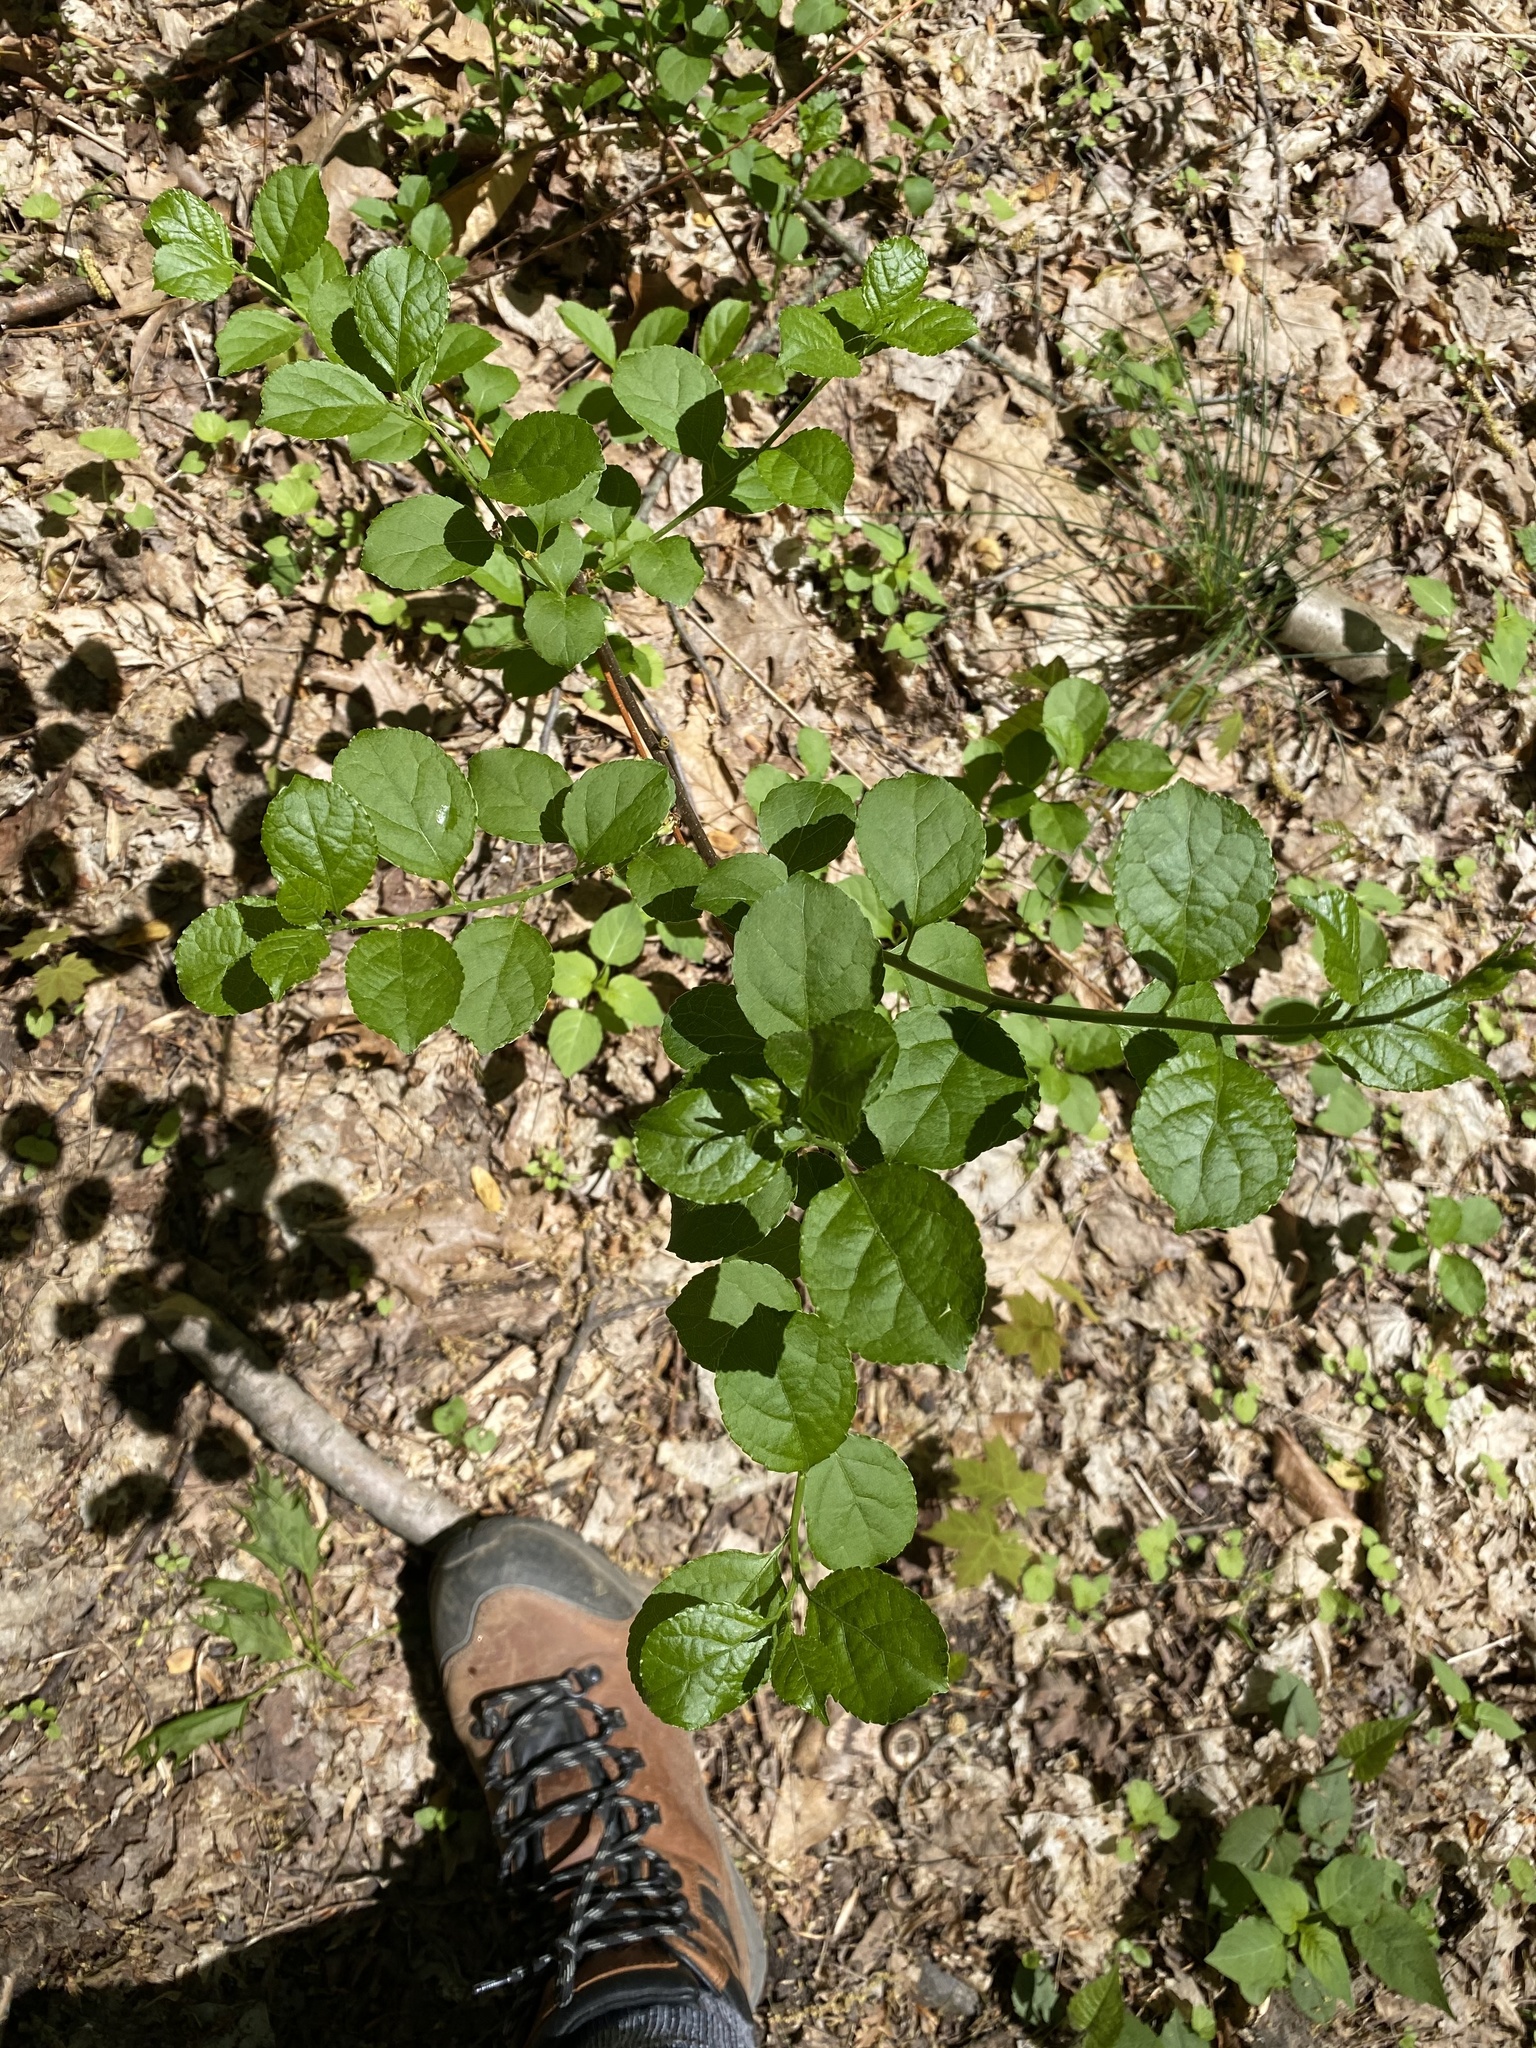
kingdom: Plantae
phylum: Tracheophyta
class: Magnoliopsida
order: Celastrales
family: Celastraceae
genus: Celastrus
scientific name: Celastrus orbiculatus
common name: Oriental bittersweet
